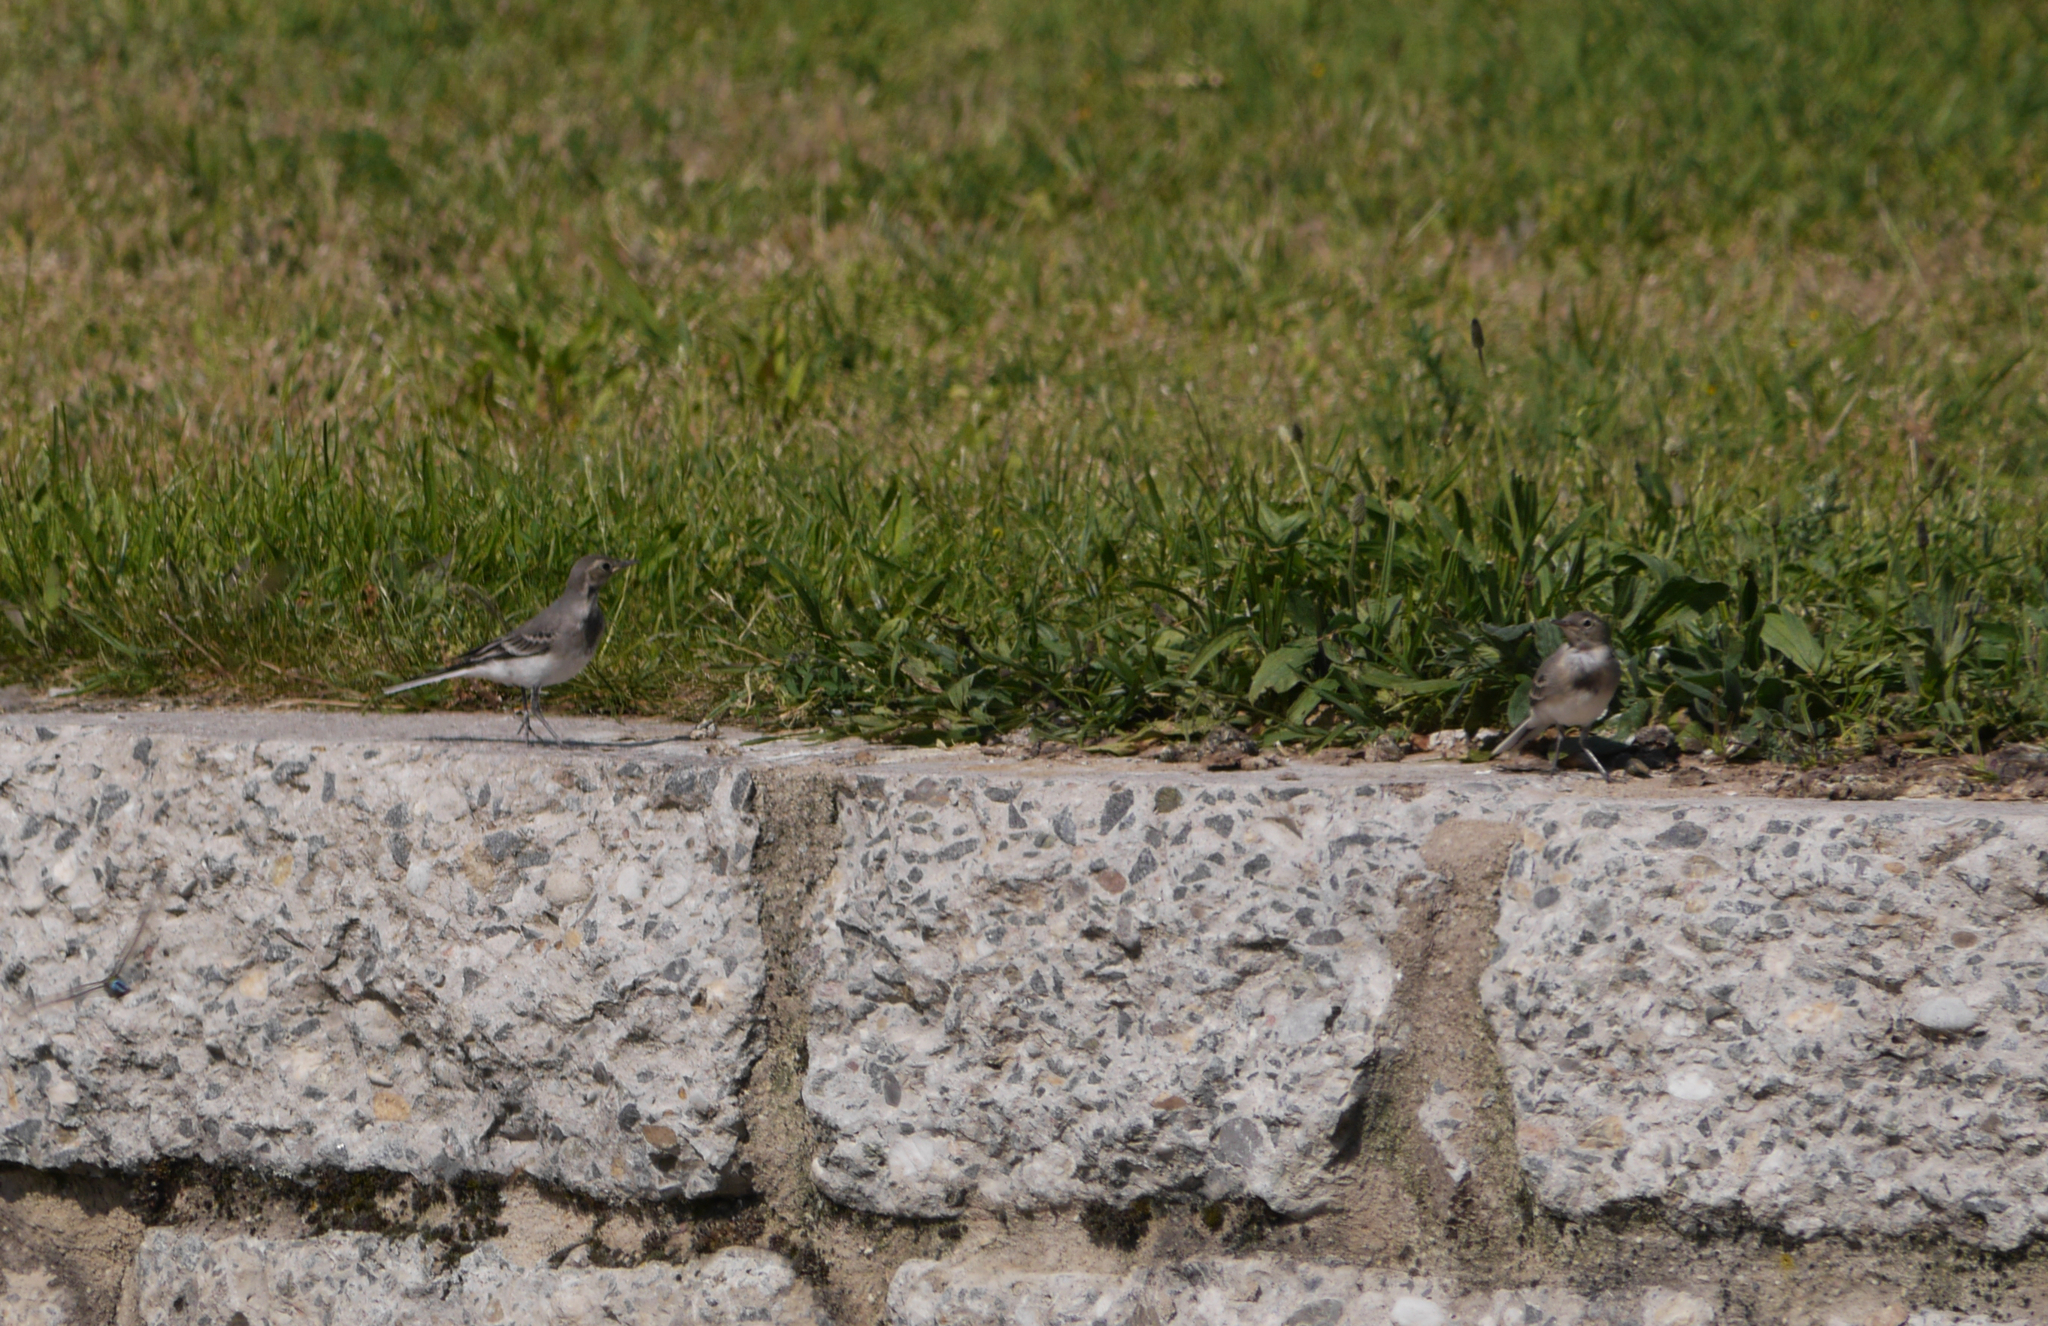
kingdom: Animalia
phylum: Chordata
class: Aves
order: Passeriformes
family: Motacillidae
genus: Motacilla
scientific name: Motacilla alba
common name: White wagtail
